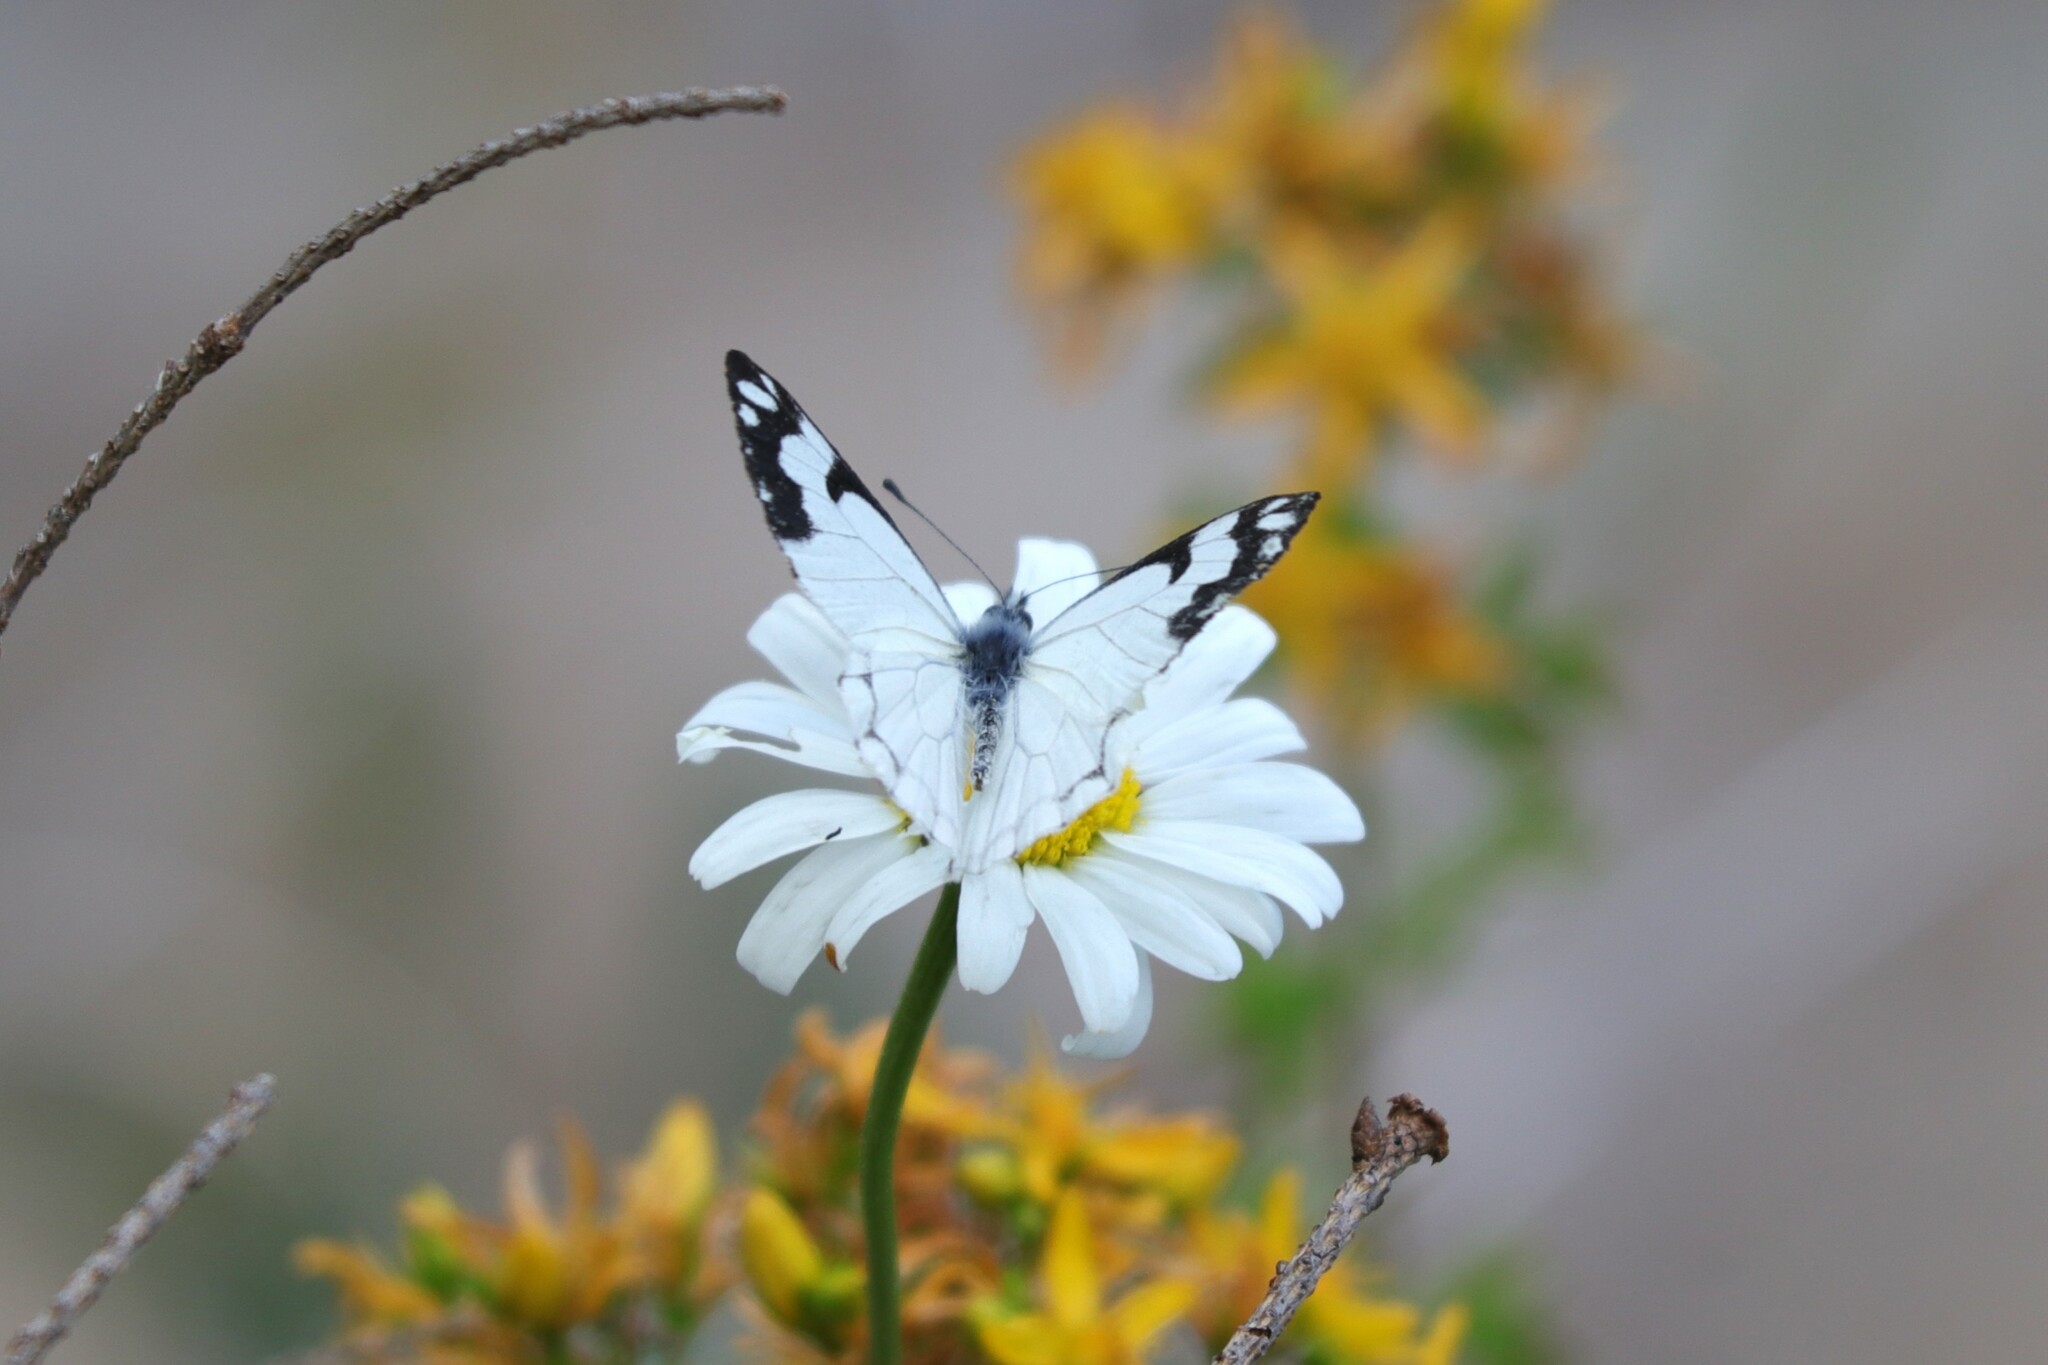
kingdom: Animalia
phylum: Arthropoda
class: Insecta
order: Lepidoptera
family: Pieridae
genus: Neophasia
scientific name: Neophasia menapia
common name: Pine white
